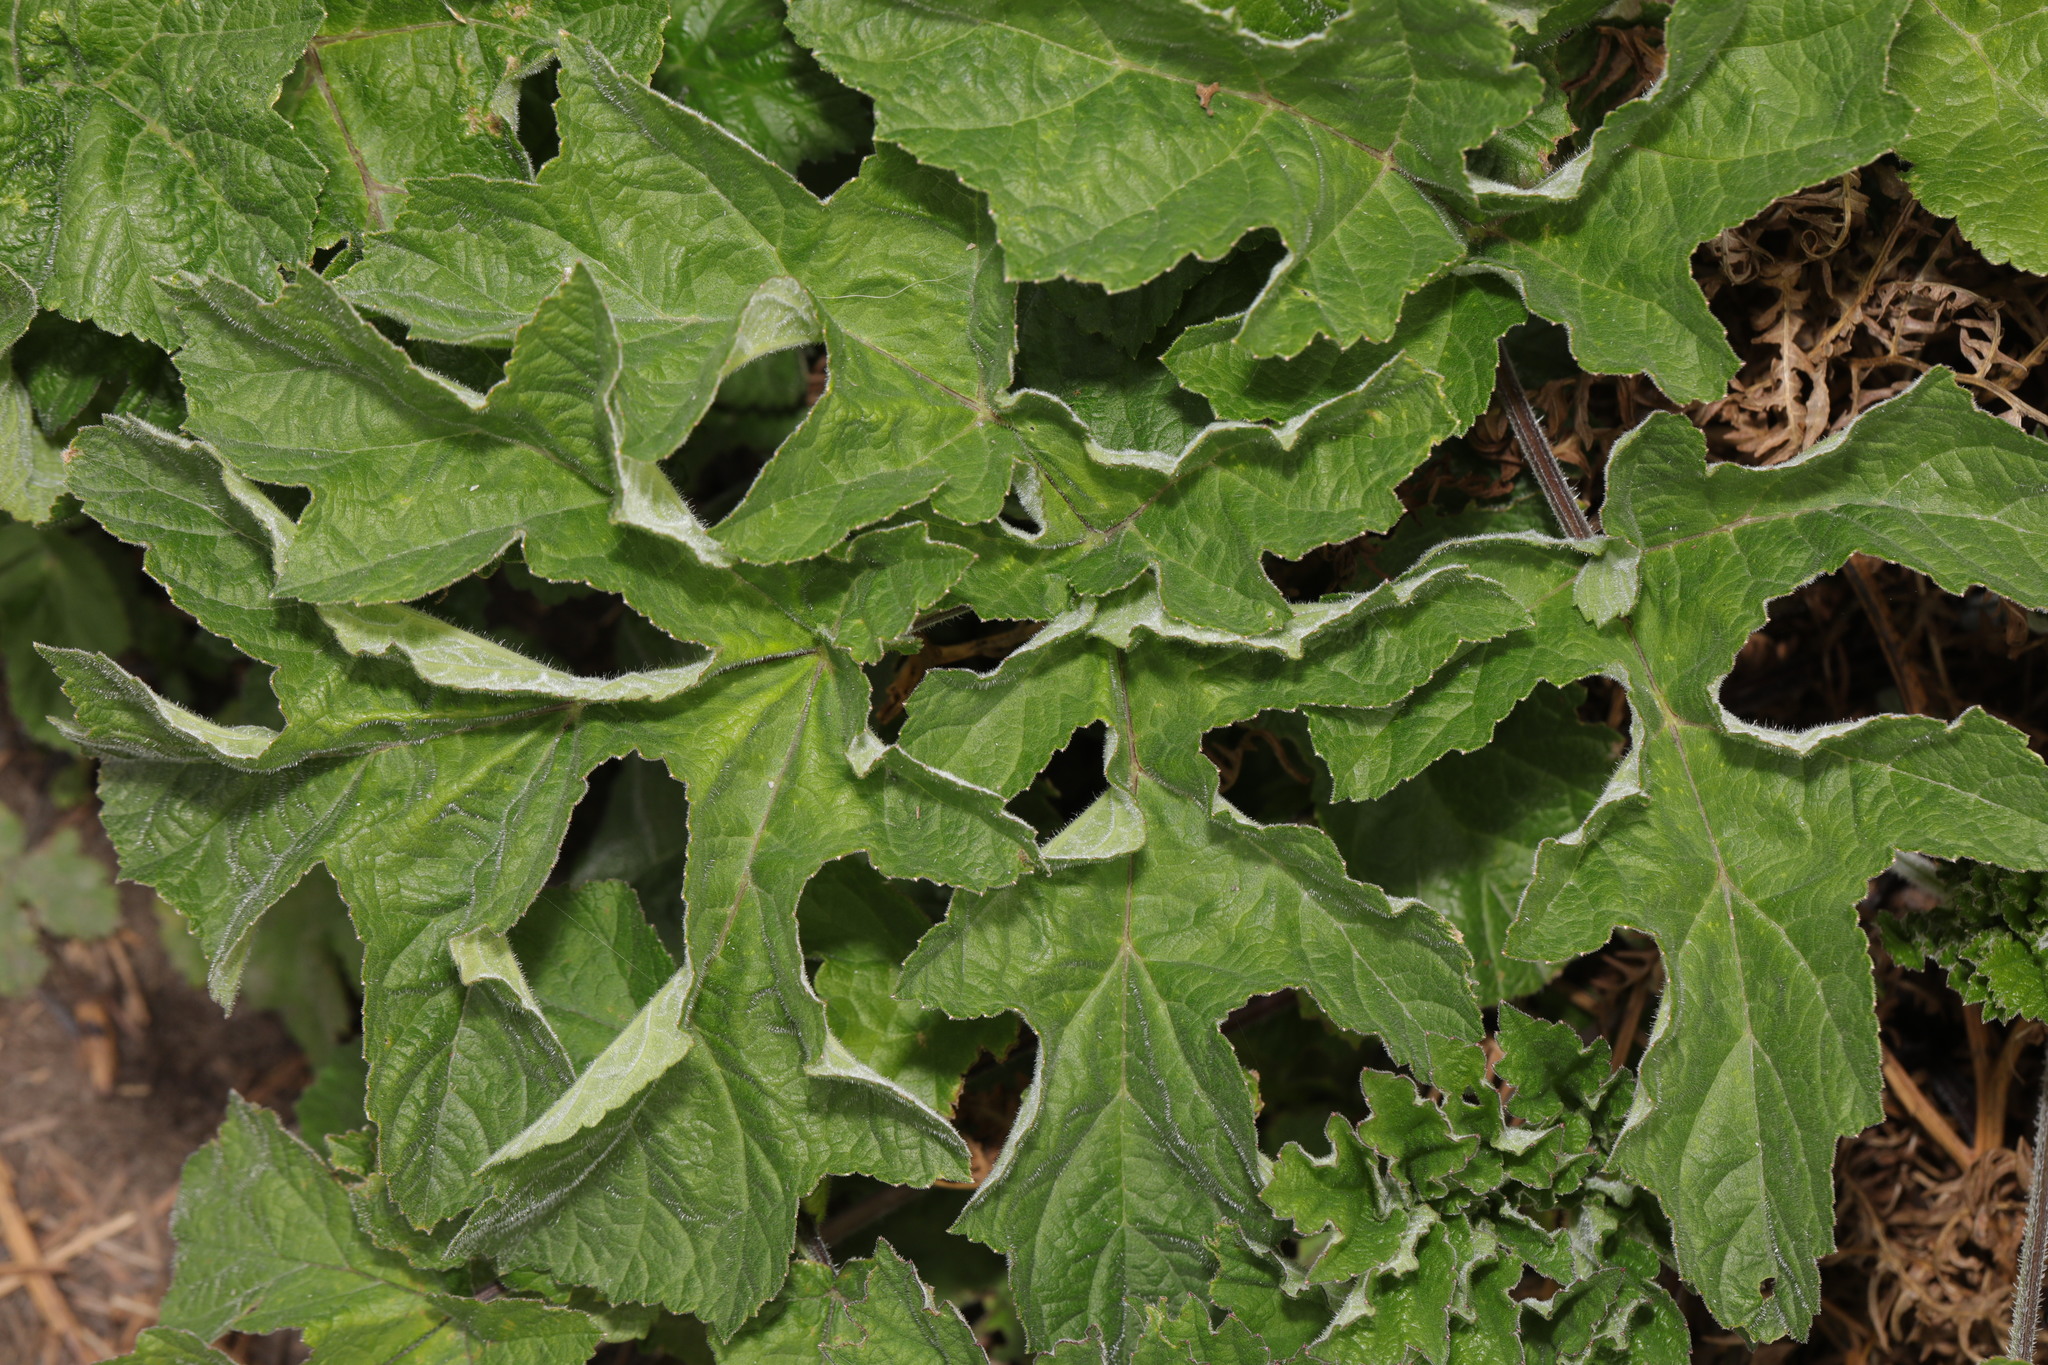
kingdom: Plantae
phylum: Tracheophyta
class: Magnoliopsida
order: Apiales
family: Apiaceae
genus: Heracleum
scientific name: Heracleum sphondylium
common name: Hogweed
